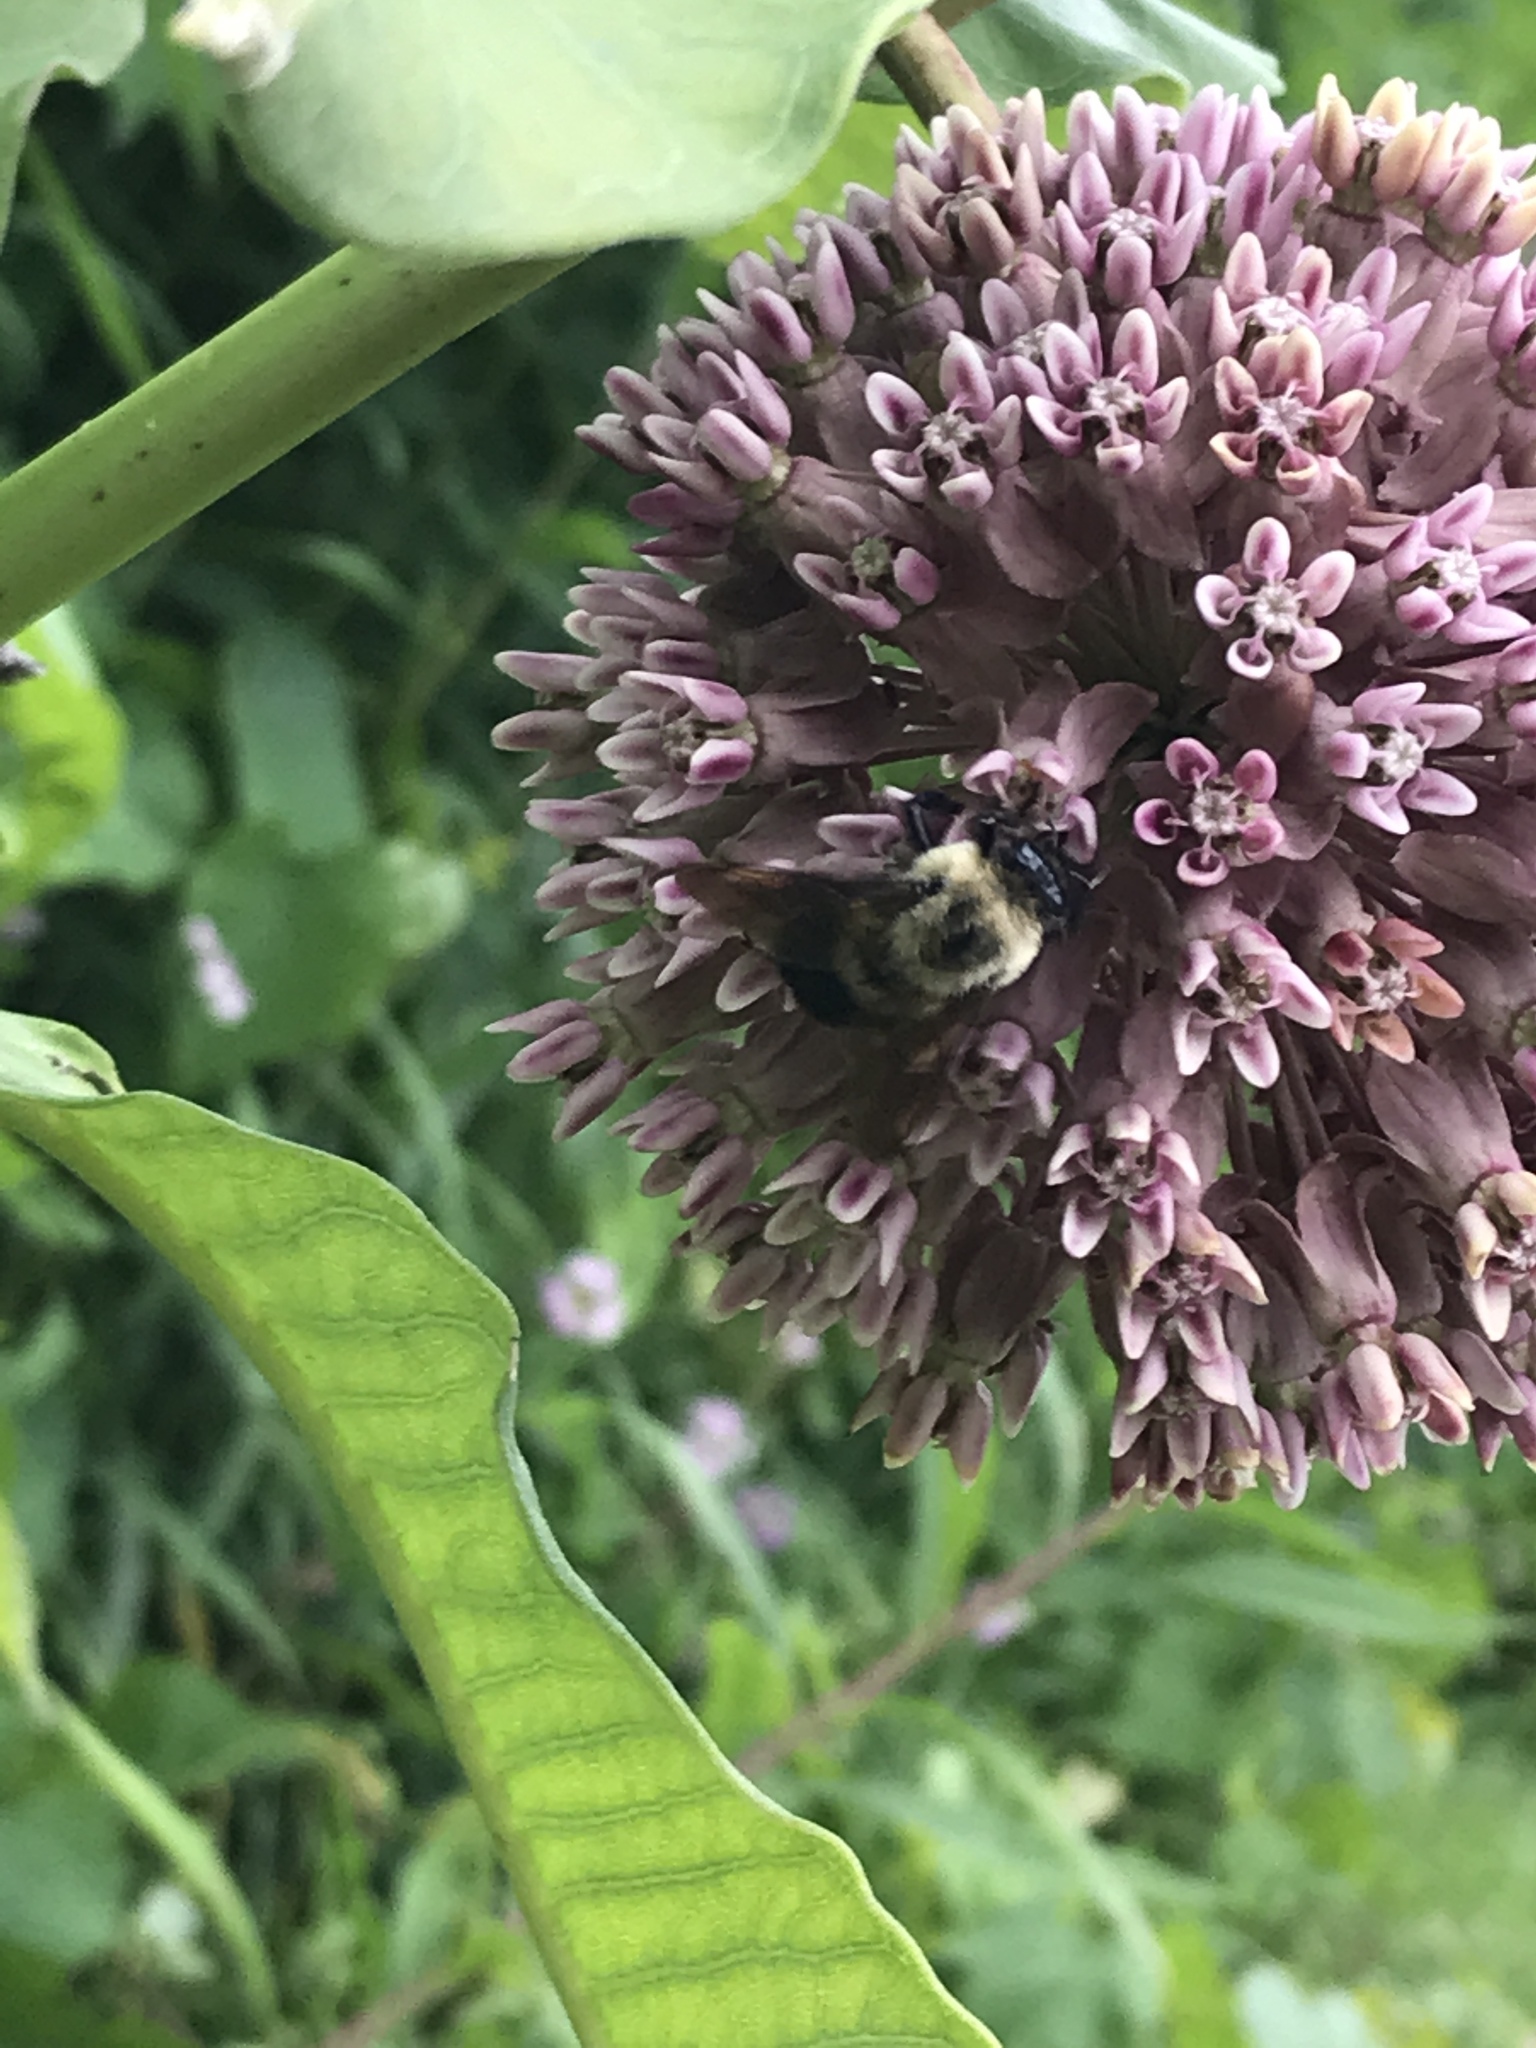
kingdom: Animalia
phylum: Arthropoda
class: Insecta
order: Hymenoptera
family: Apidae
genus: Bombus
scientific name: Bombus griseocollis
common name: Brown-belted bumble bee
